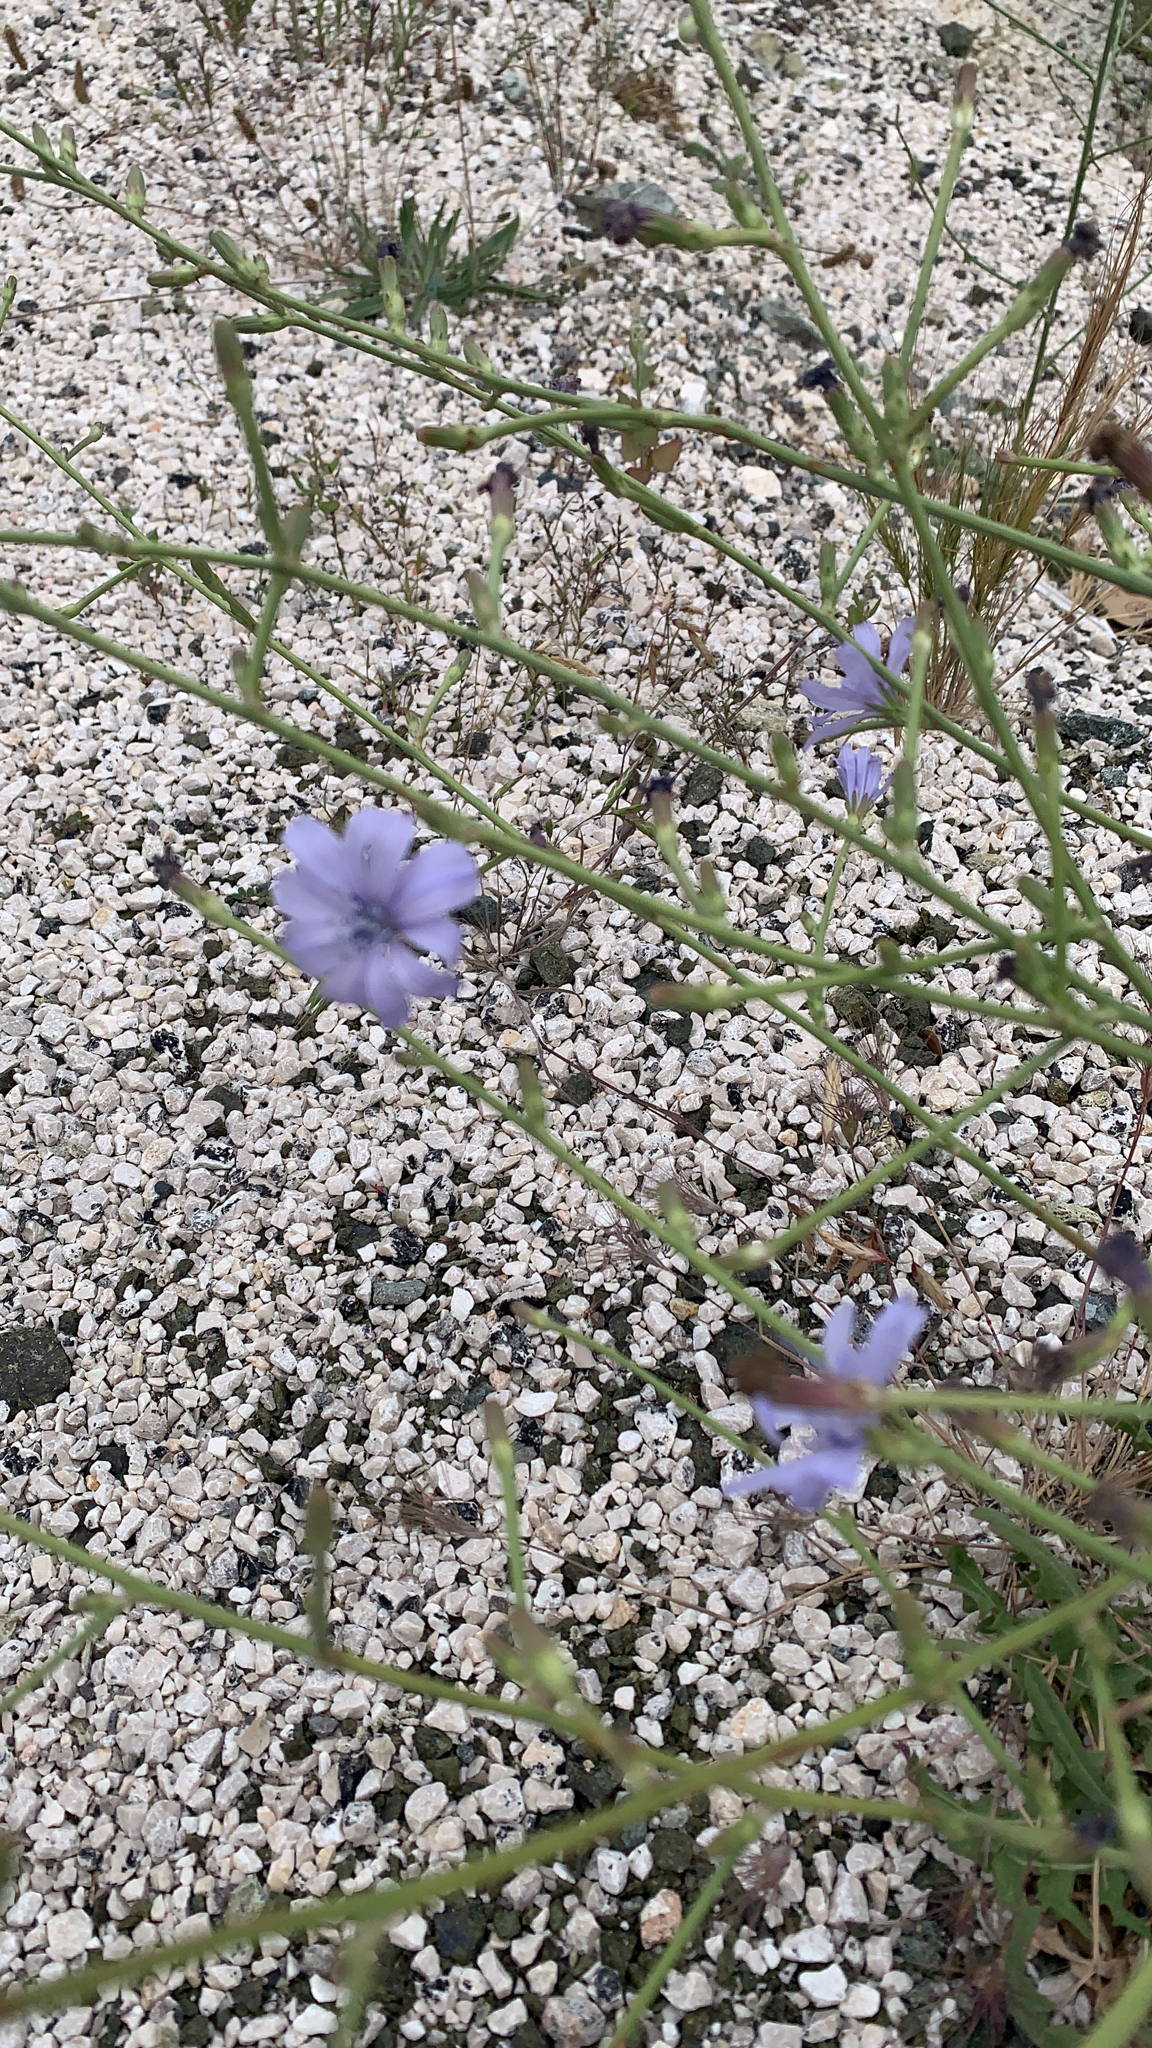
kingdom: Plantae
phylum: Tracheophyta
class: Magnoliopsida
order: Asterales
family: Asteraceae
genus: Cichorium
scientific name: Cichorium intybus
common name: Chicory
